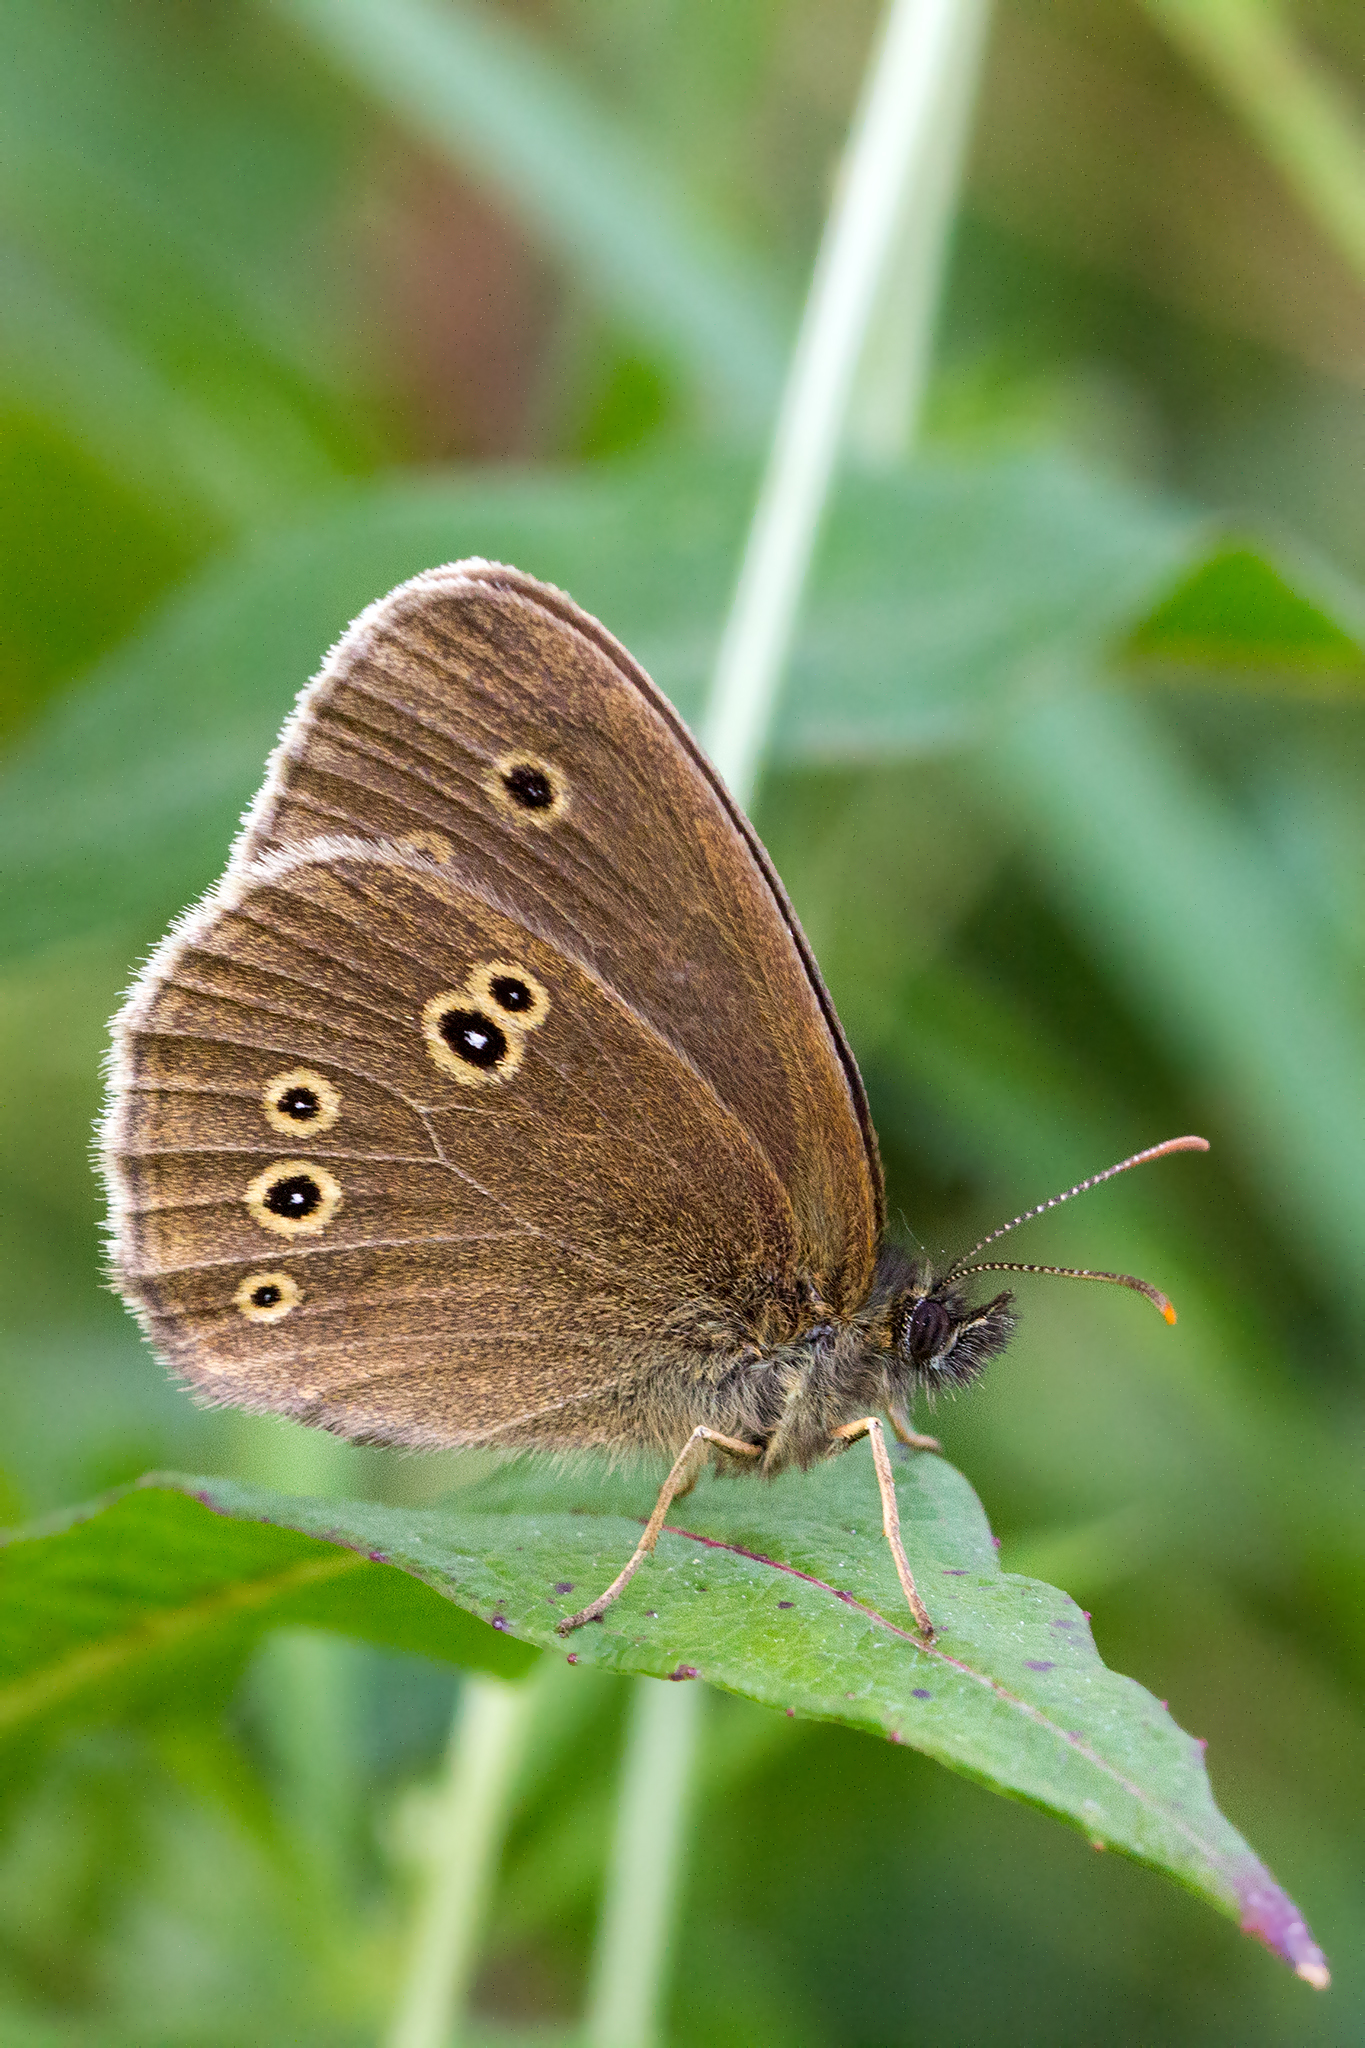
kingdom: Animalia
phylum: Arthropoda
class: Insecta
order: Lepidoptera
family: Nymphalidae
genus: Aphantopus
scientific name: Aphantopus hyperantus
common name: Ringlet
